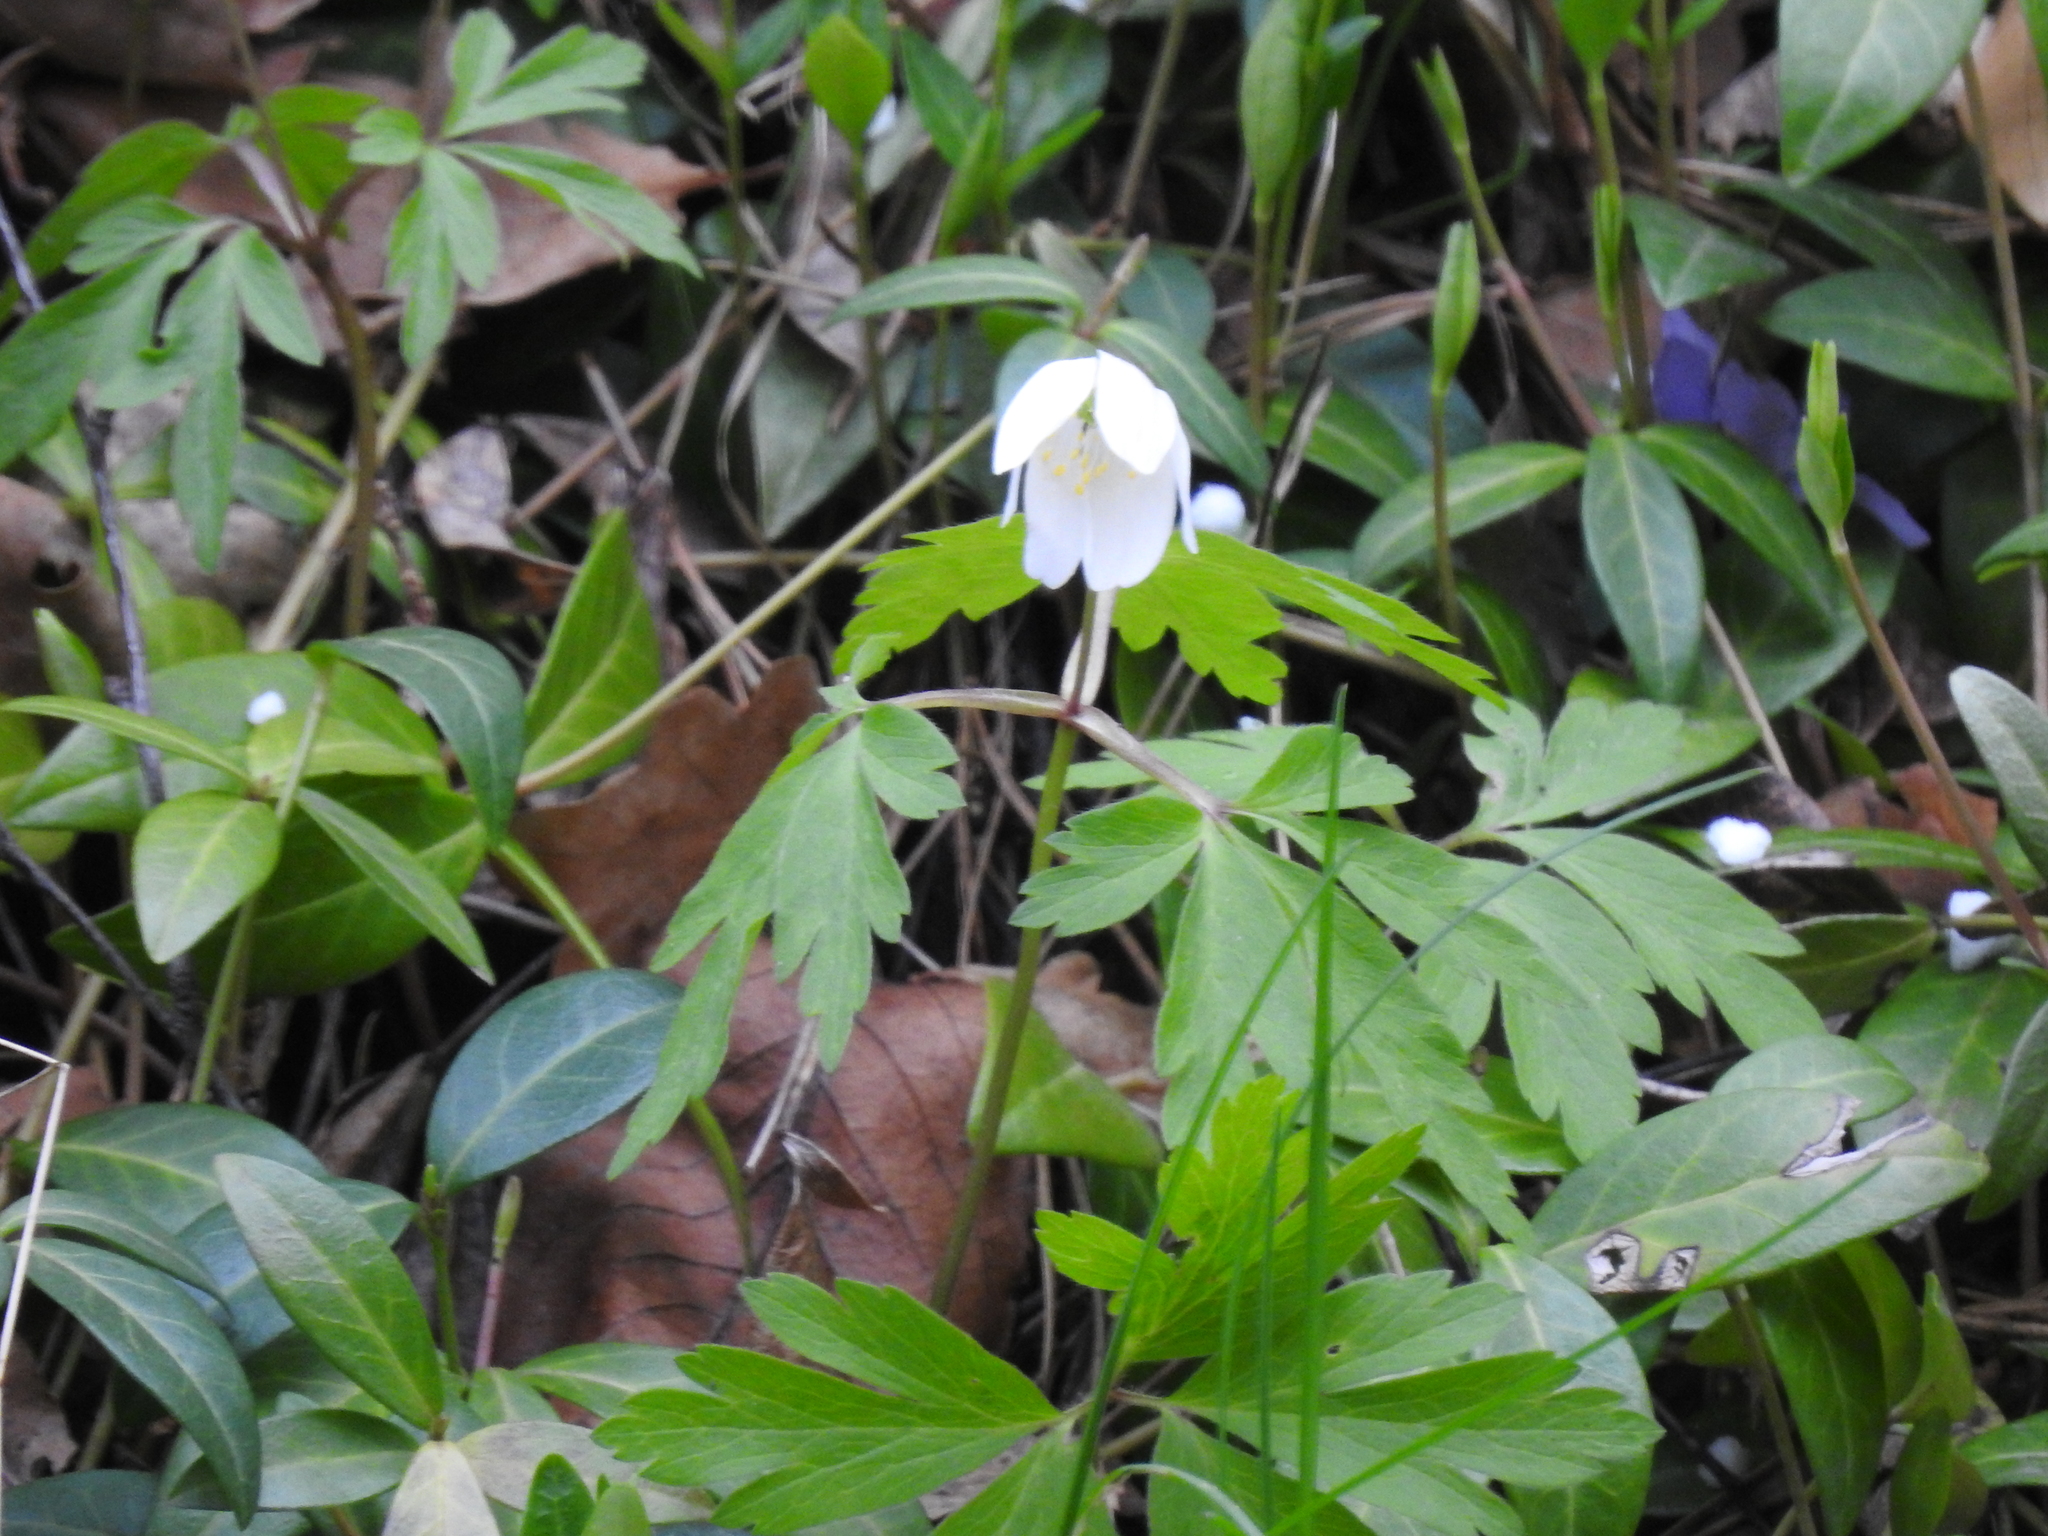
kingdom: Plantae
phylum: Tracheophyta
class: Magnoliopsida
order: Ranunculales
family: Ranunculaceae
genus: Anemone
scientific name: Anemone nemorosa
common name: Wood anemone
